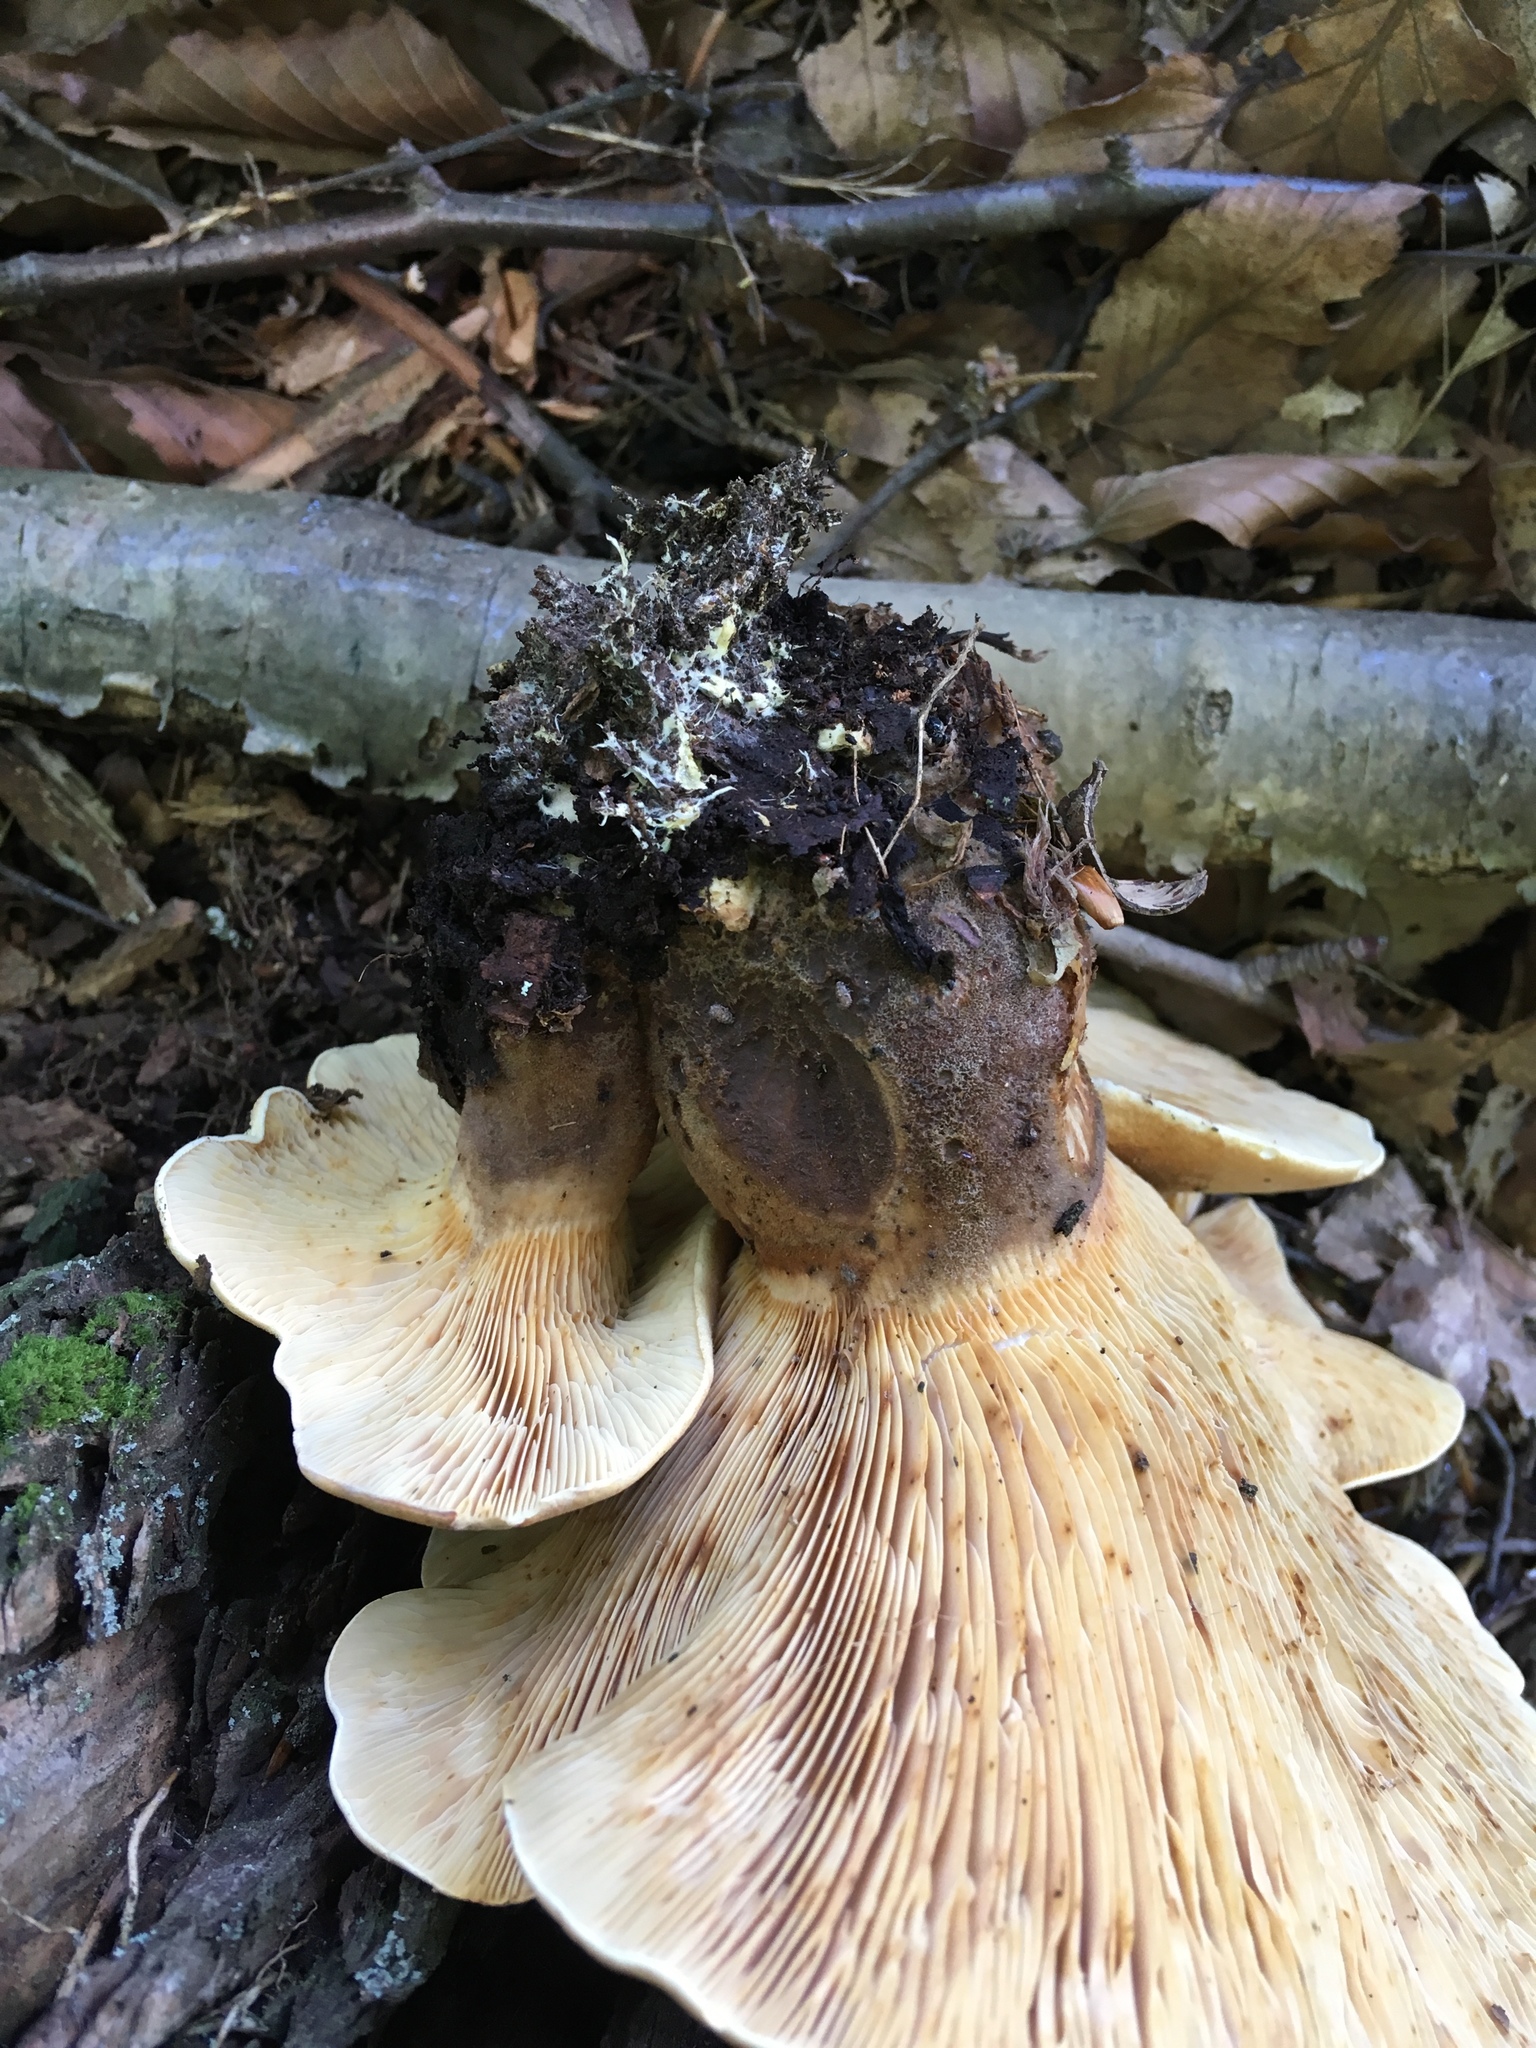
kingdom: Fungi
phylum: Basidiomycota
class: Agaricomycetes
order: Boletales
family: Tapinellaceae
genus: Tapinella
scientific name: Tapinella atrotomentosa
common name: Velvet rollrim
